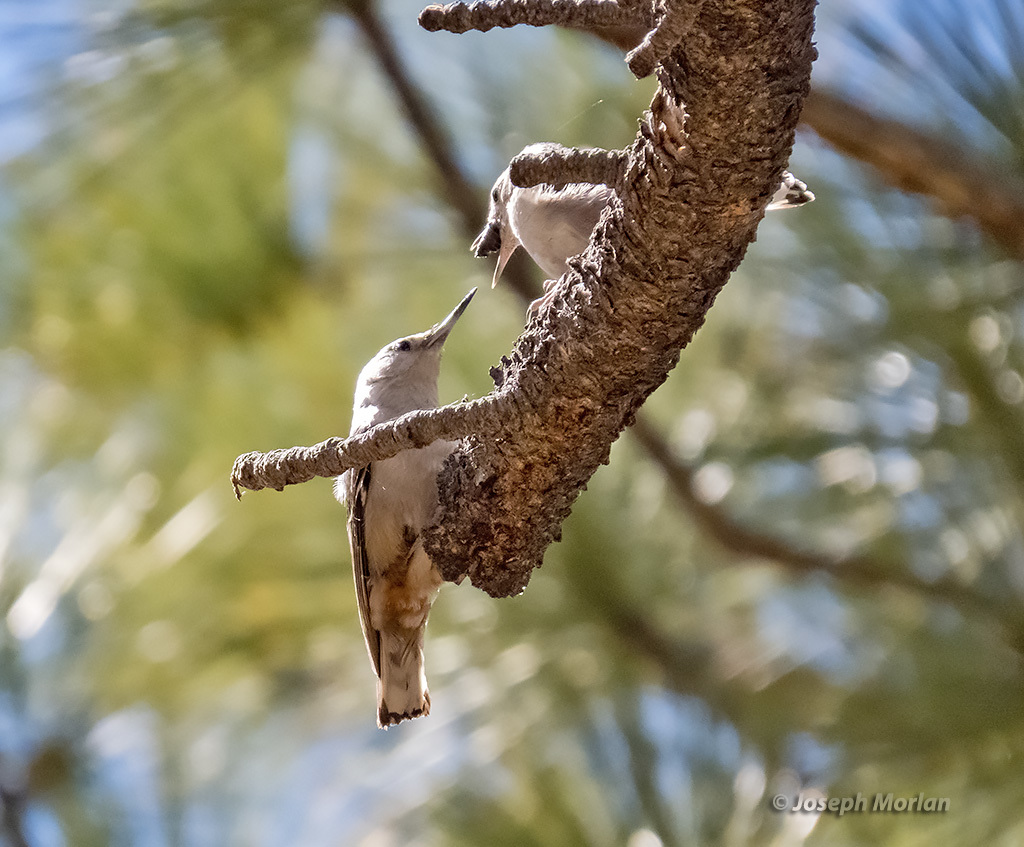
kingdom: Animalia
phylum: Chordata
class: Aves
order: Passeriformes
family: Sittidae
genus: Sitta
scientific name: Sitta carolinensis
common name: White-breasted nuthatch
